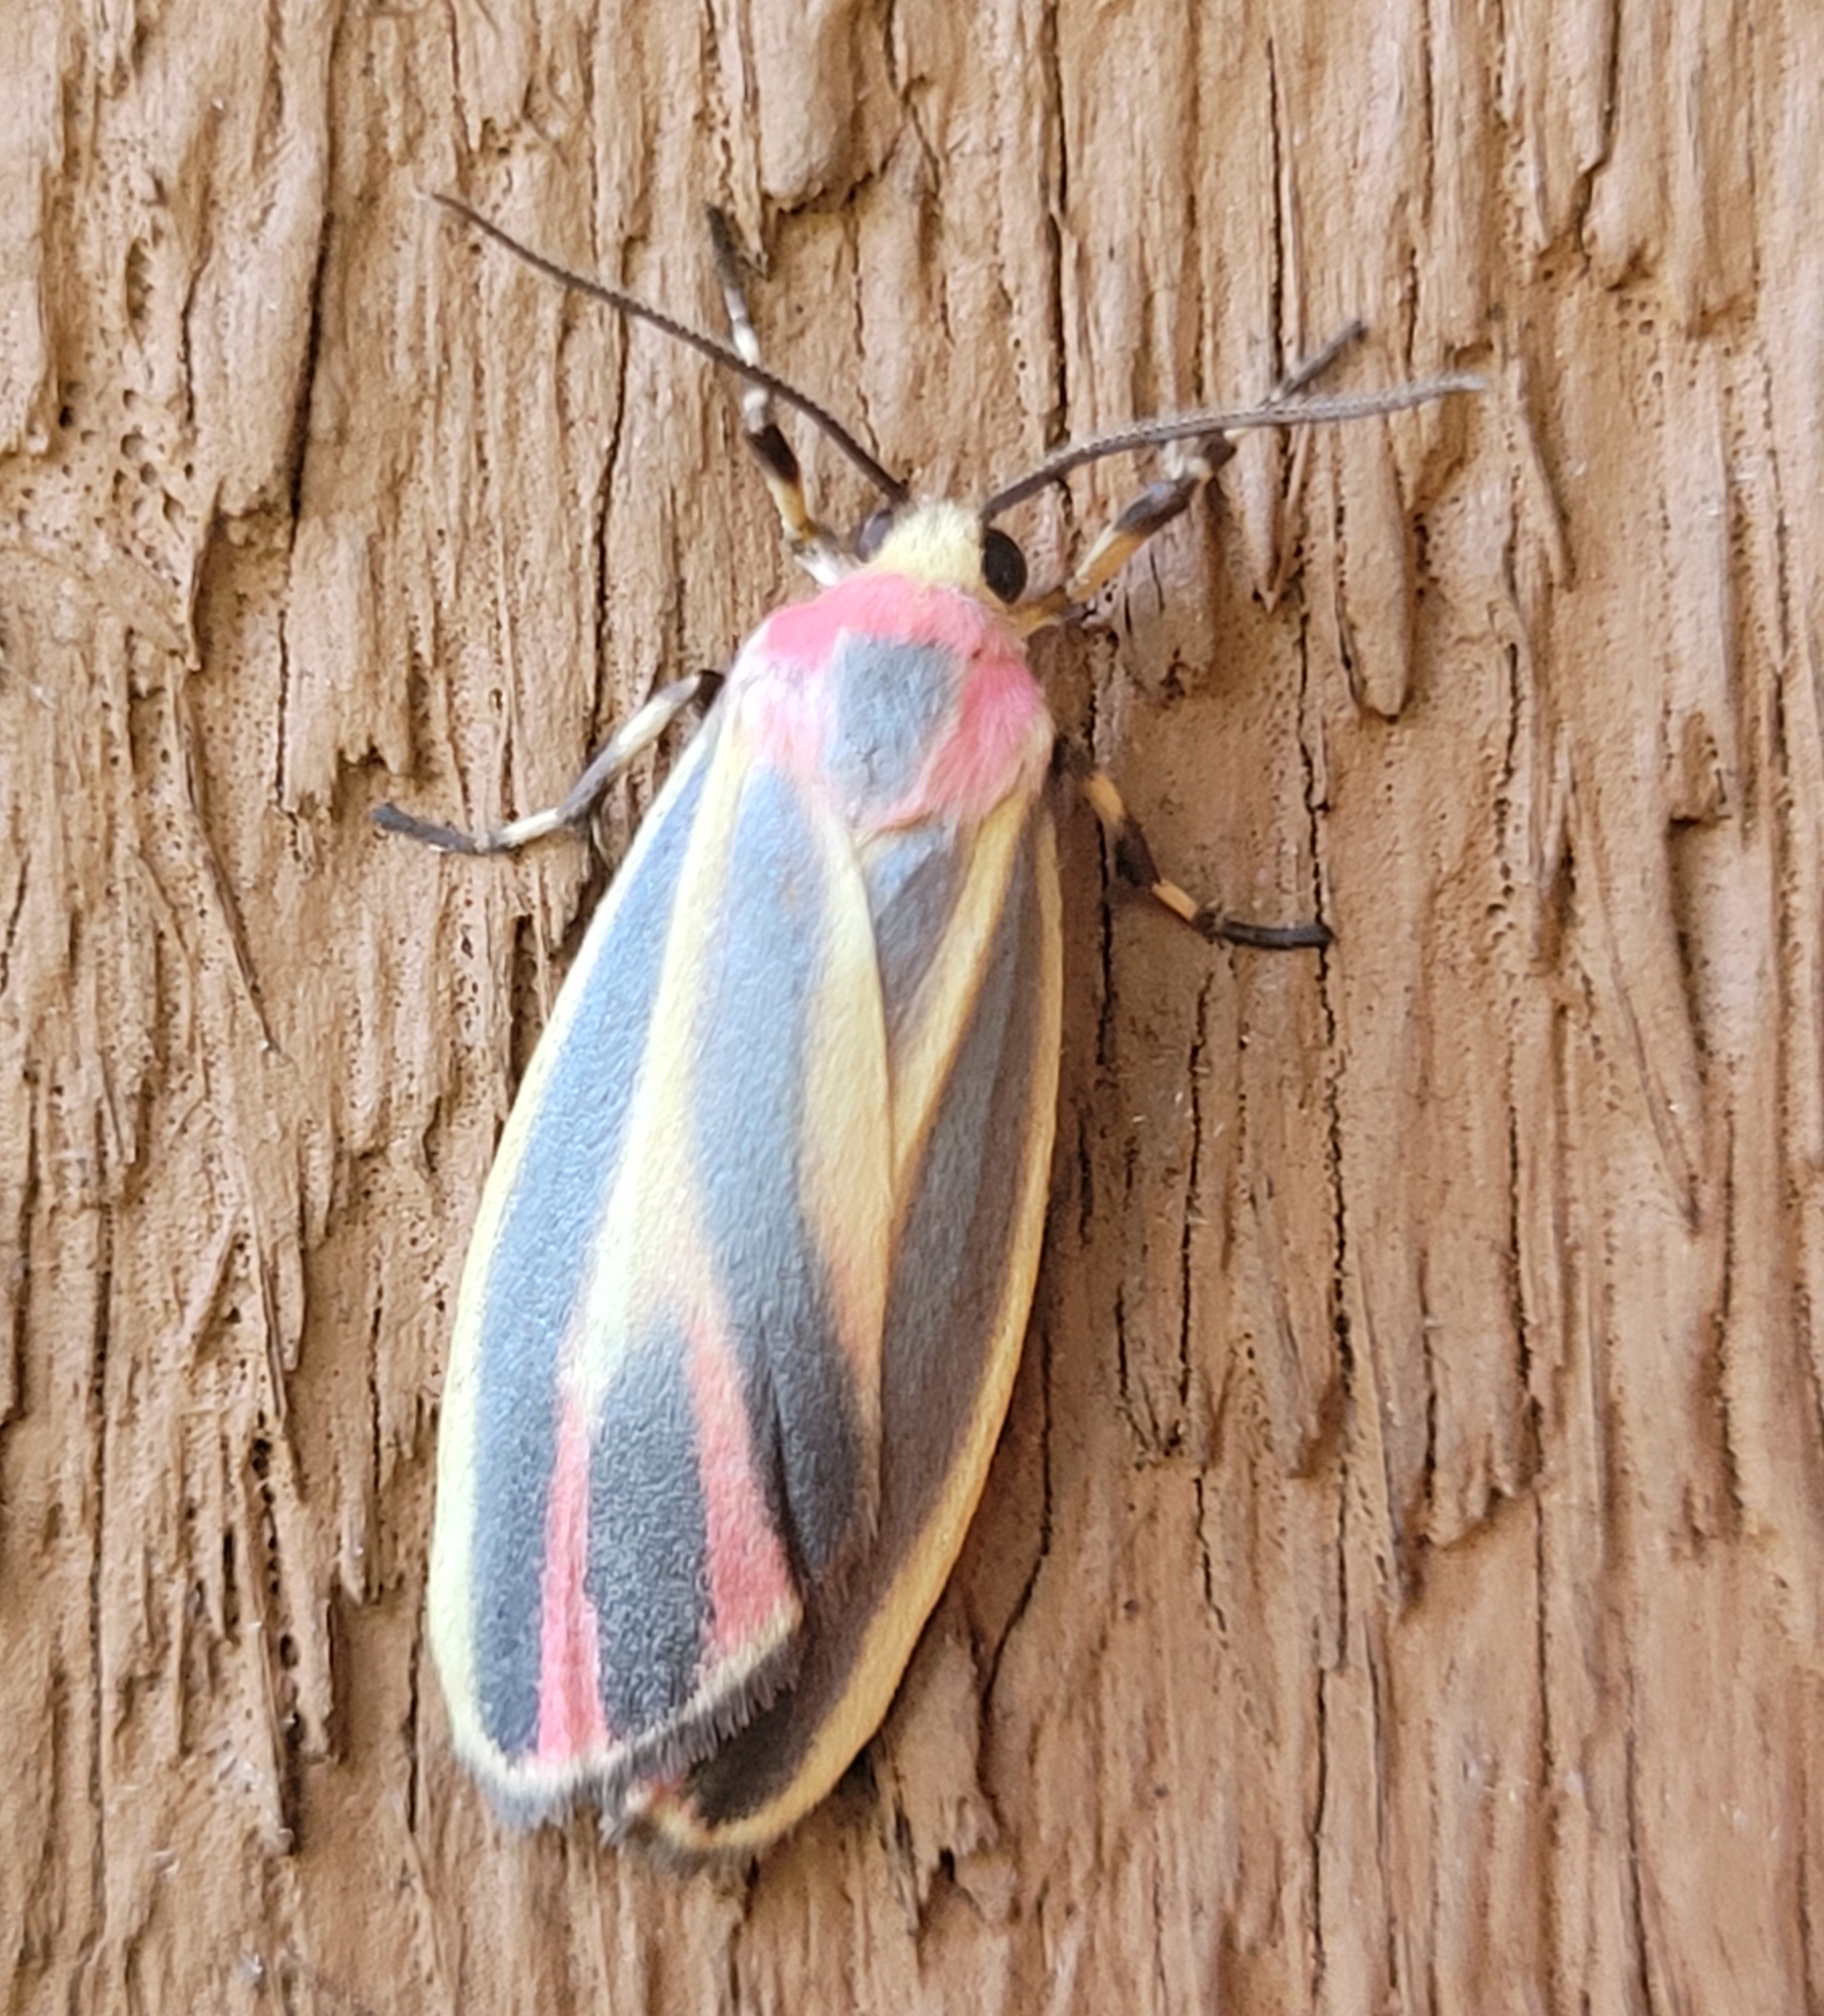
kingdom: Animalia
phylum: Arthropoda
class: Insecta
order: Lepidoptera
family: Erebidae
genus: Hypoprepia
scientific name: Hypoprepia fucosa
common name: Painted lichen moth
